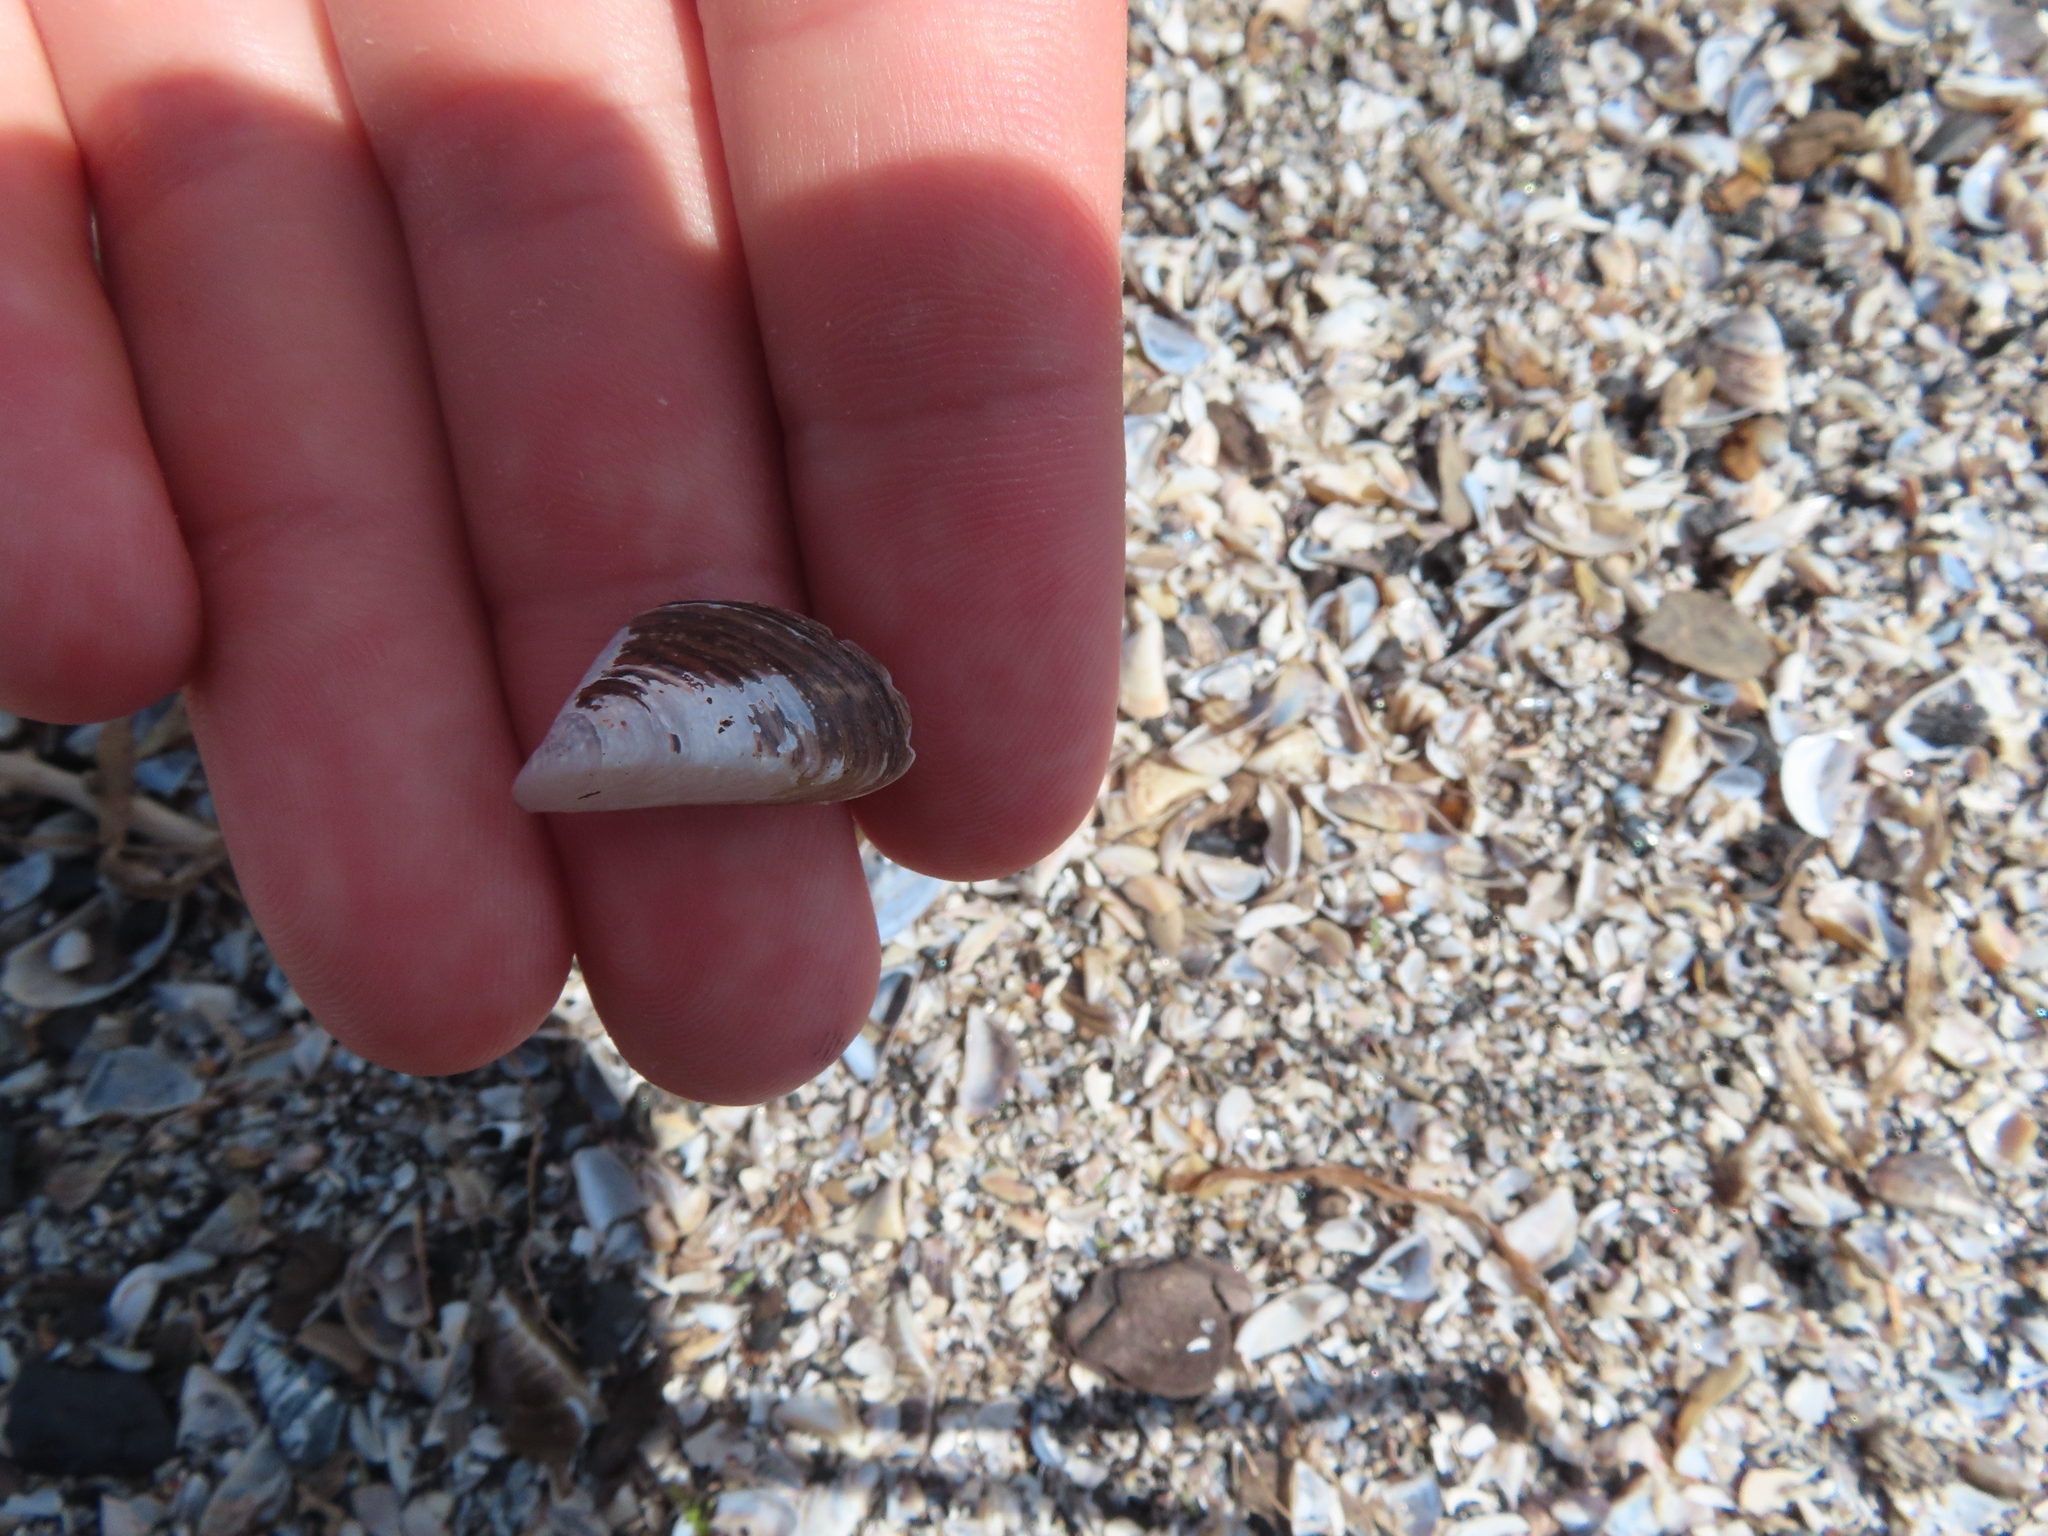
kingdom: Animalia
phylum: Mollusca
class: Bivalvia
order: Myida
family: Dreissenidae
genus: Dreissena
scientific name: Dreissena polymorpha
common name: Zebra mussel
